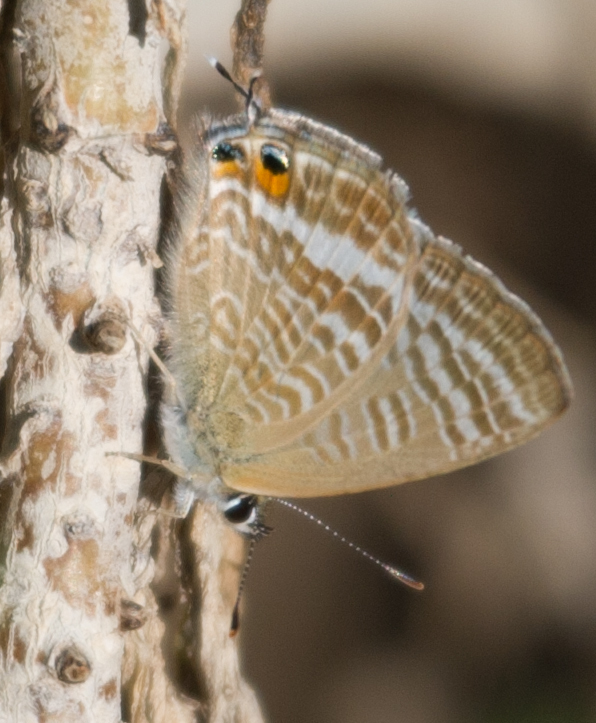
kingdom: Animalia
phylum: Arthropoda
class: Insecta
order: Lepidoptera
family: Lycaenidae
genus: Lampides
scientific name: Lampides boeticus
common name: Long-tailed blue
